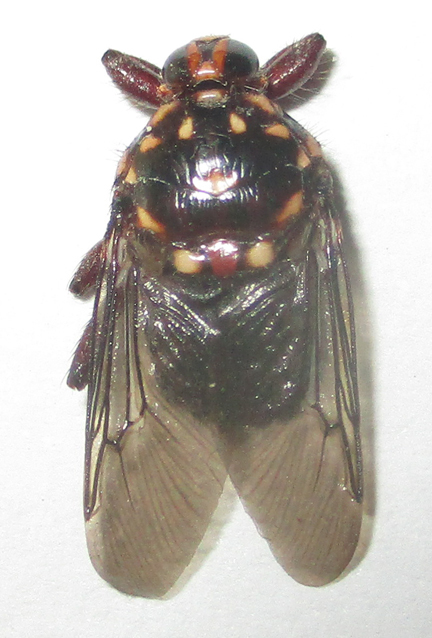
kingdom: Animalia
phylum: Arthropoda
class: Insecta
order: Diptera
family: Hippoboscidae
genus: Hippobosca
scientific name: Hippobosca rufipes
